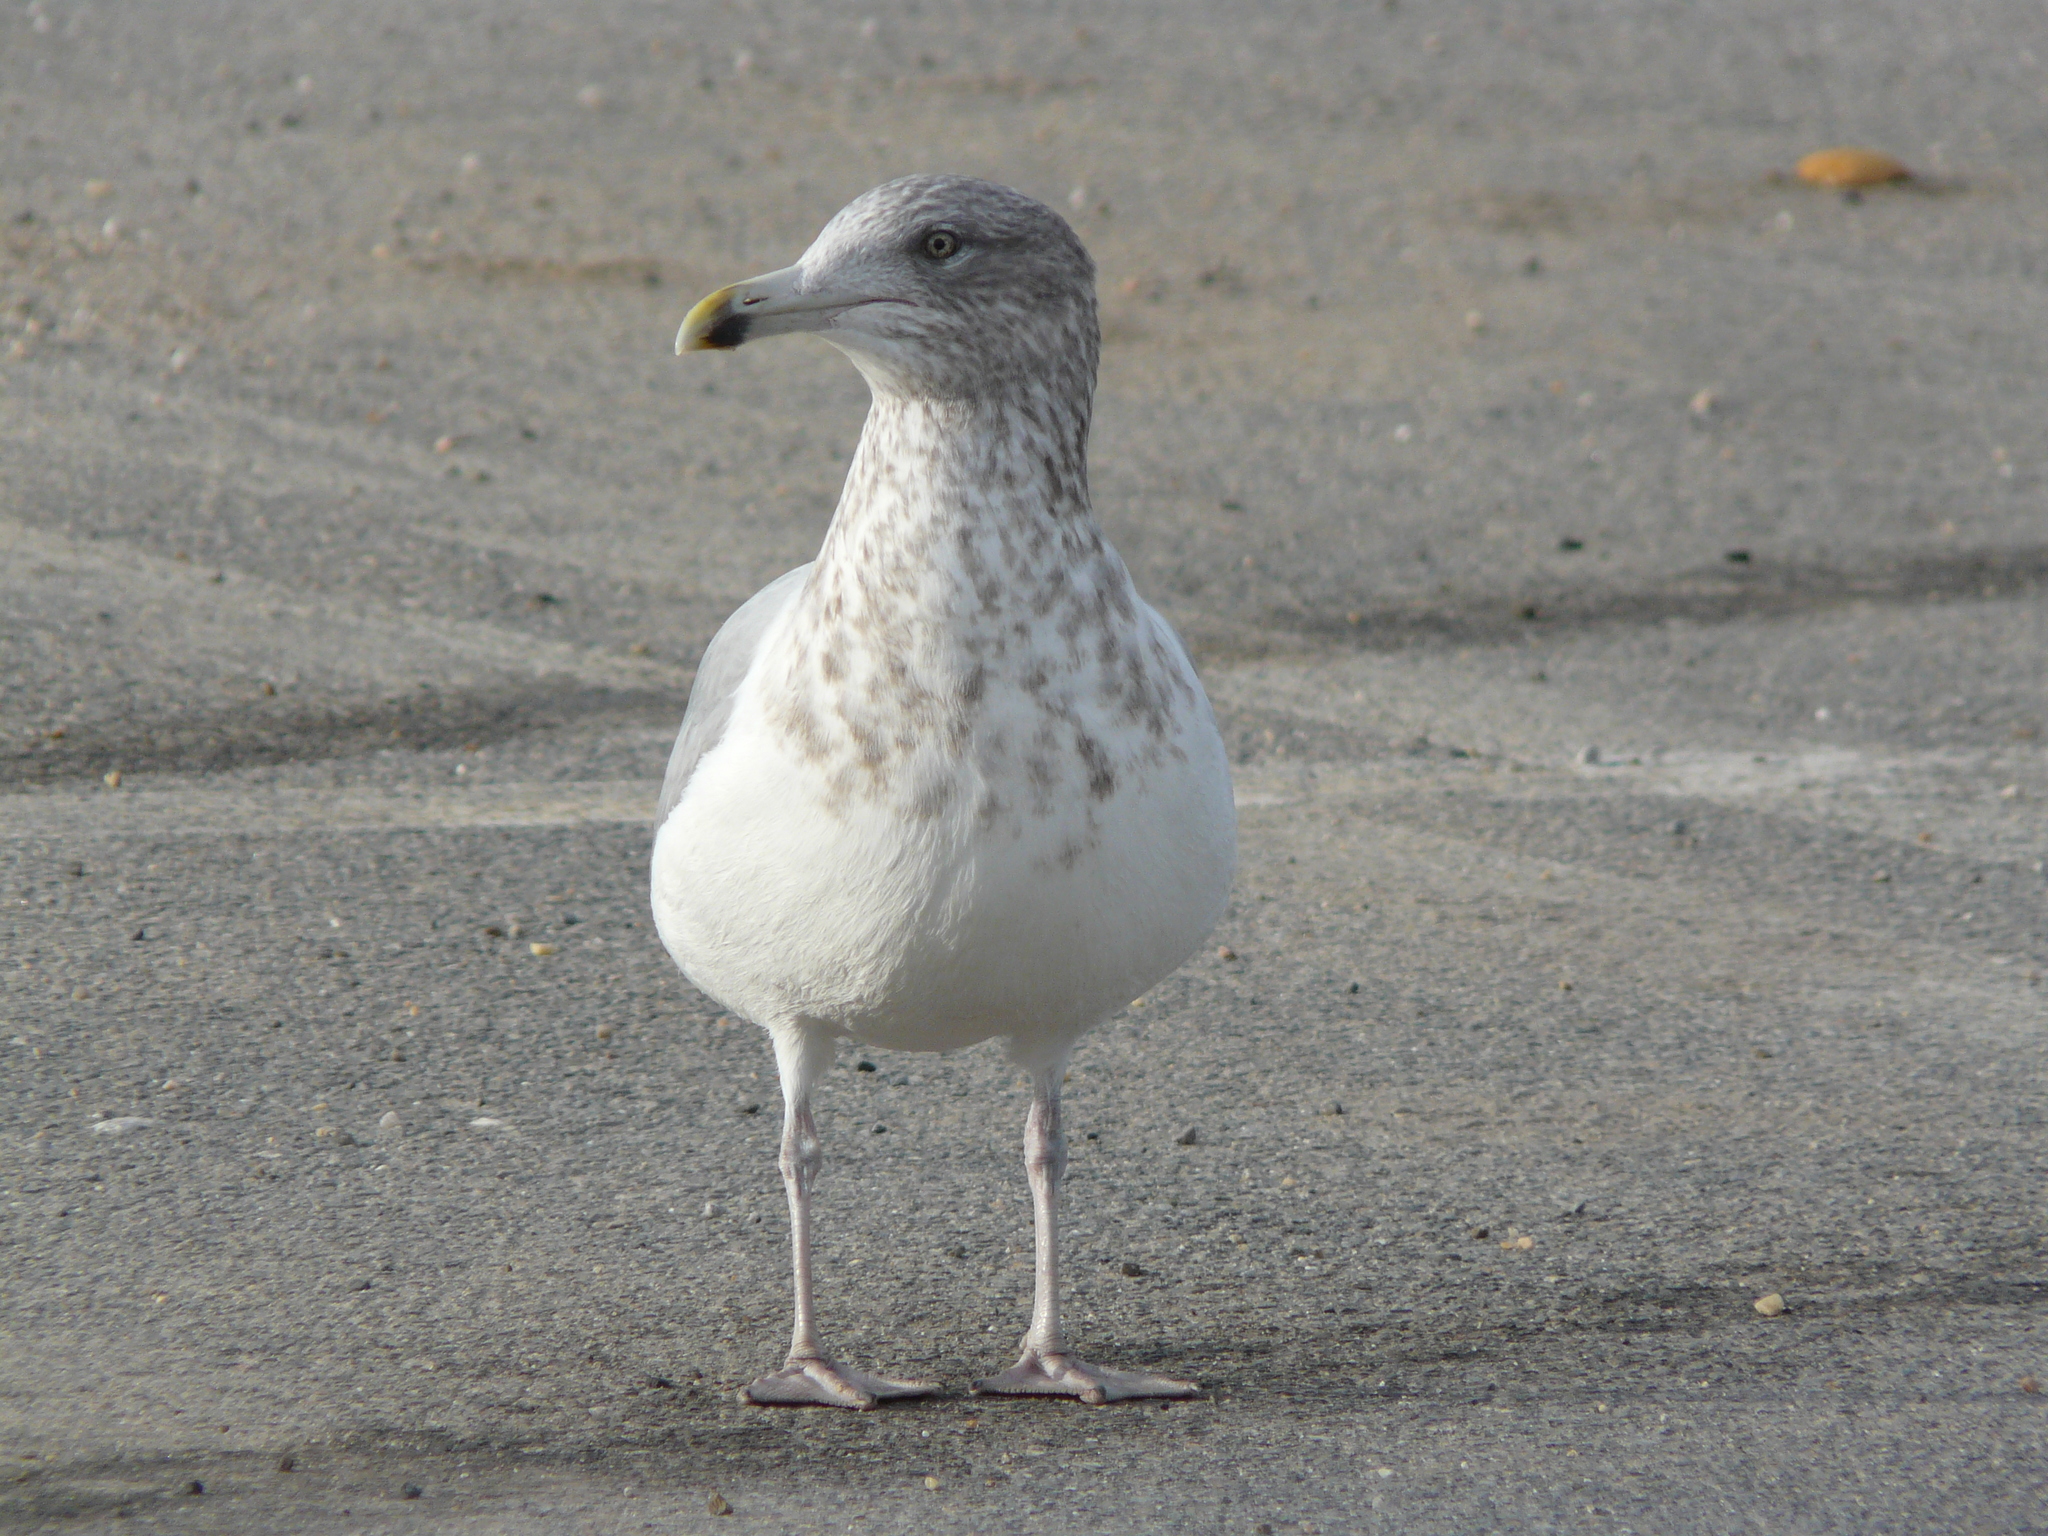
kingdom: Animalia
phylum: Chordata
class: Aves
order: Charadriiformes
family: Laridae
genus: Larus
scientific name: Larus smithsonianus
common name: American herring gull
